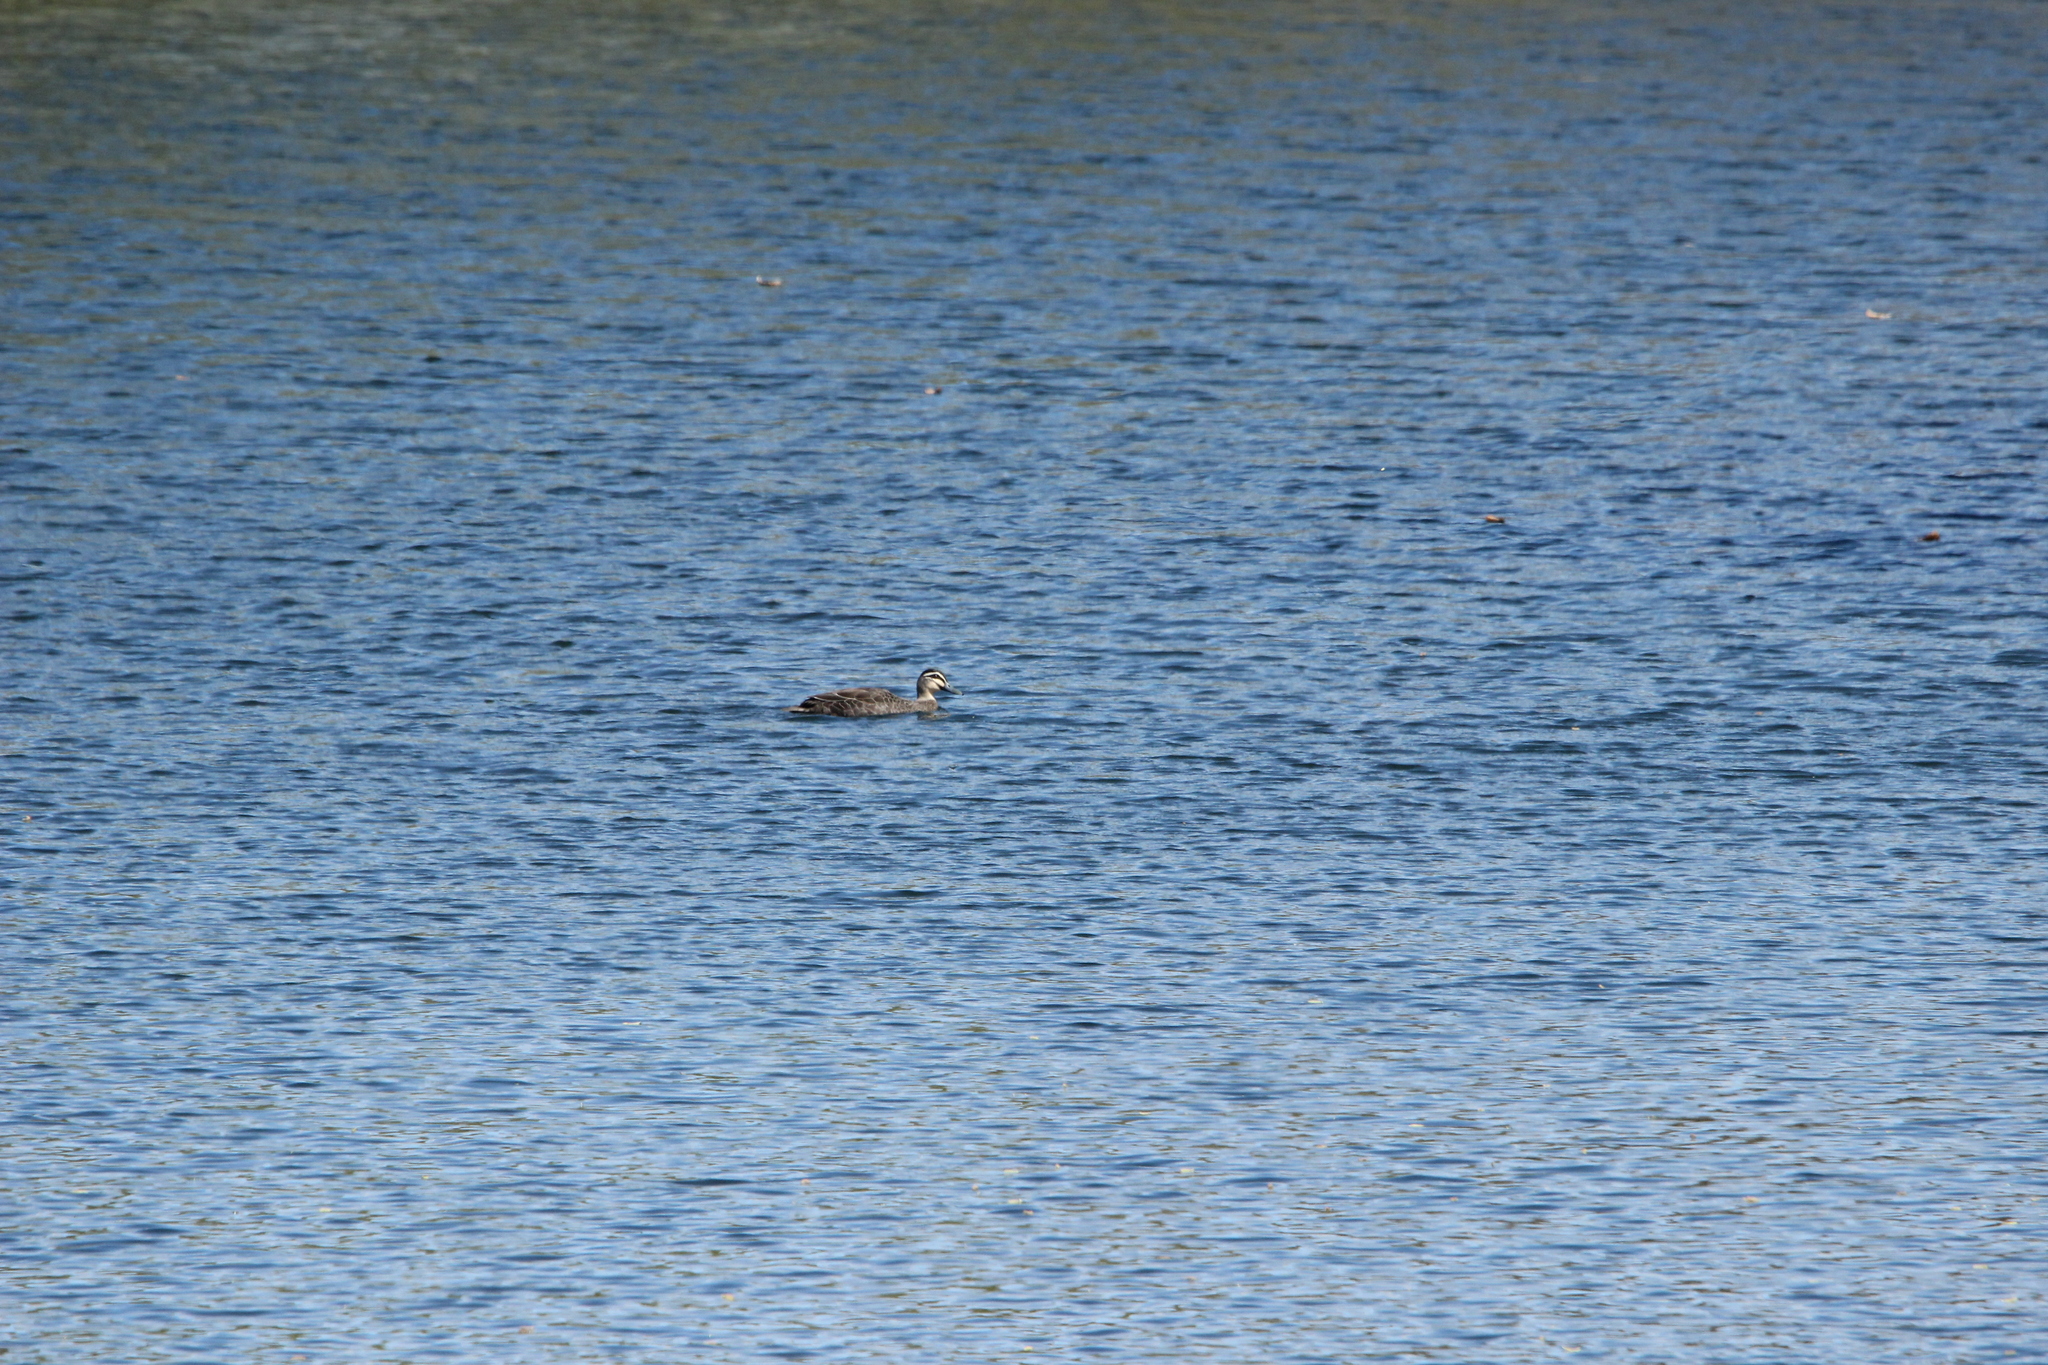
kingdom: Animalia
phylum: Chordata
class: Aves
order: Anseriformes
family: Anatidae
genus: Anas
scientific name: Anas superciliosa
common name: Pacific black duck
